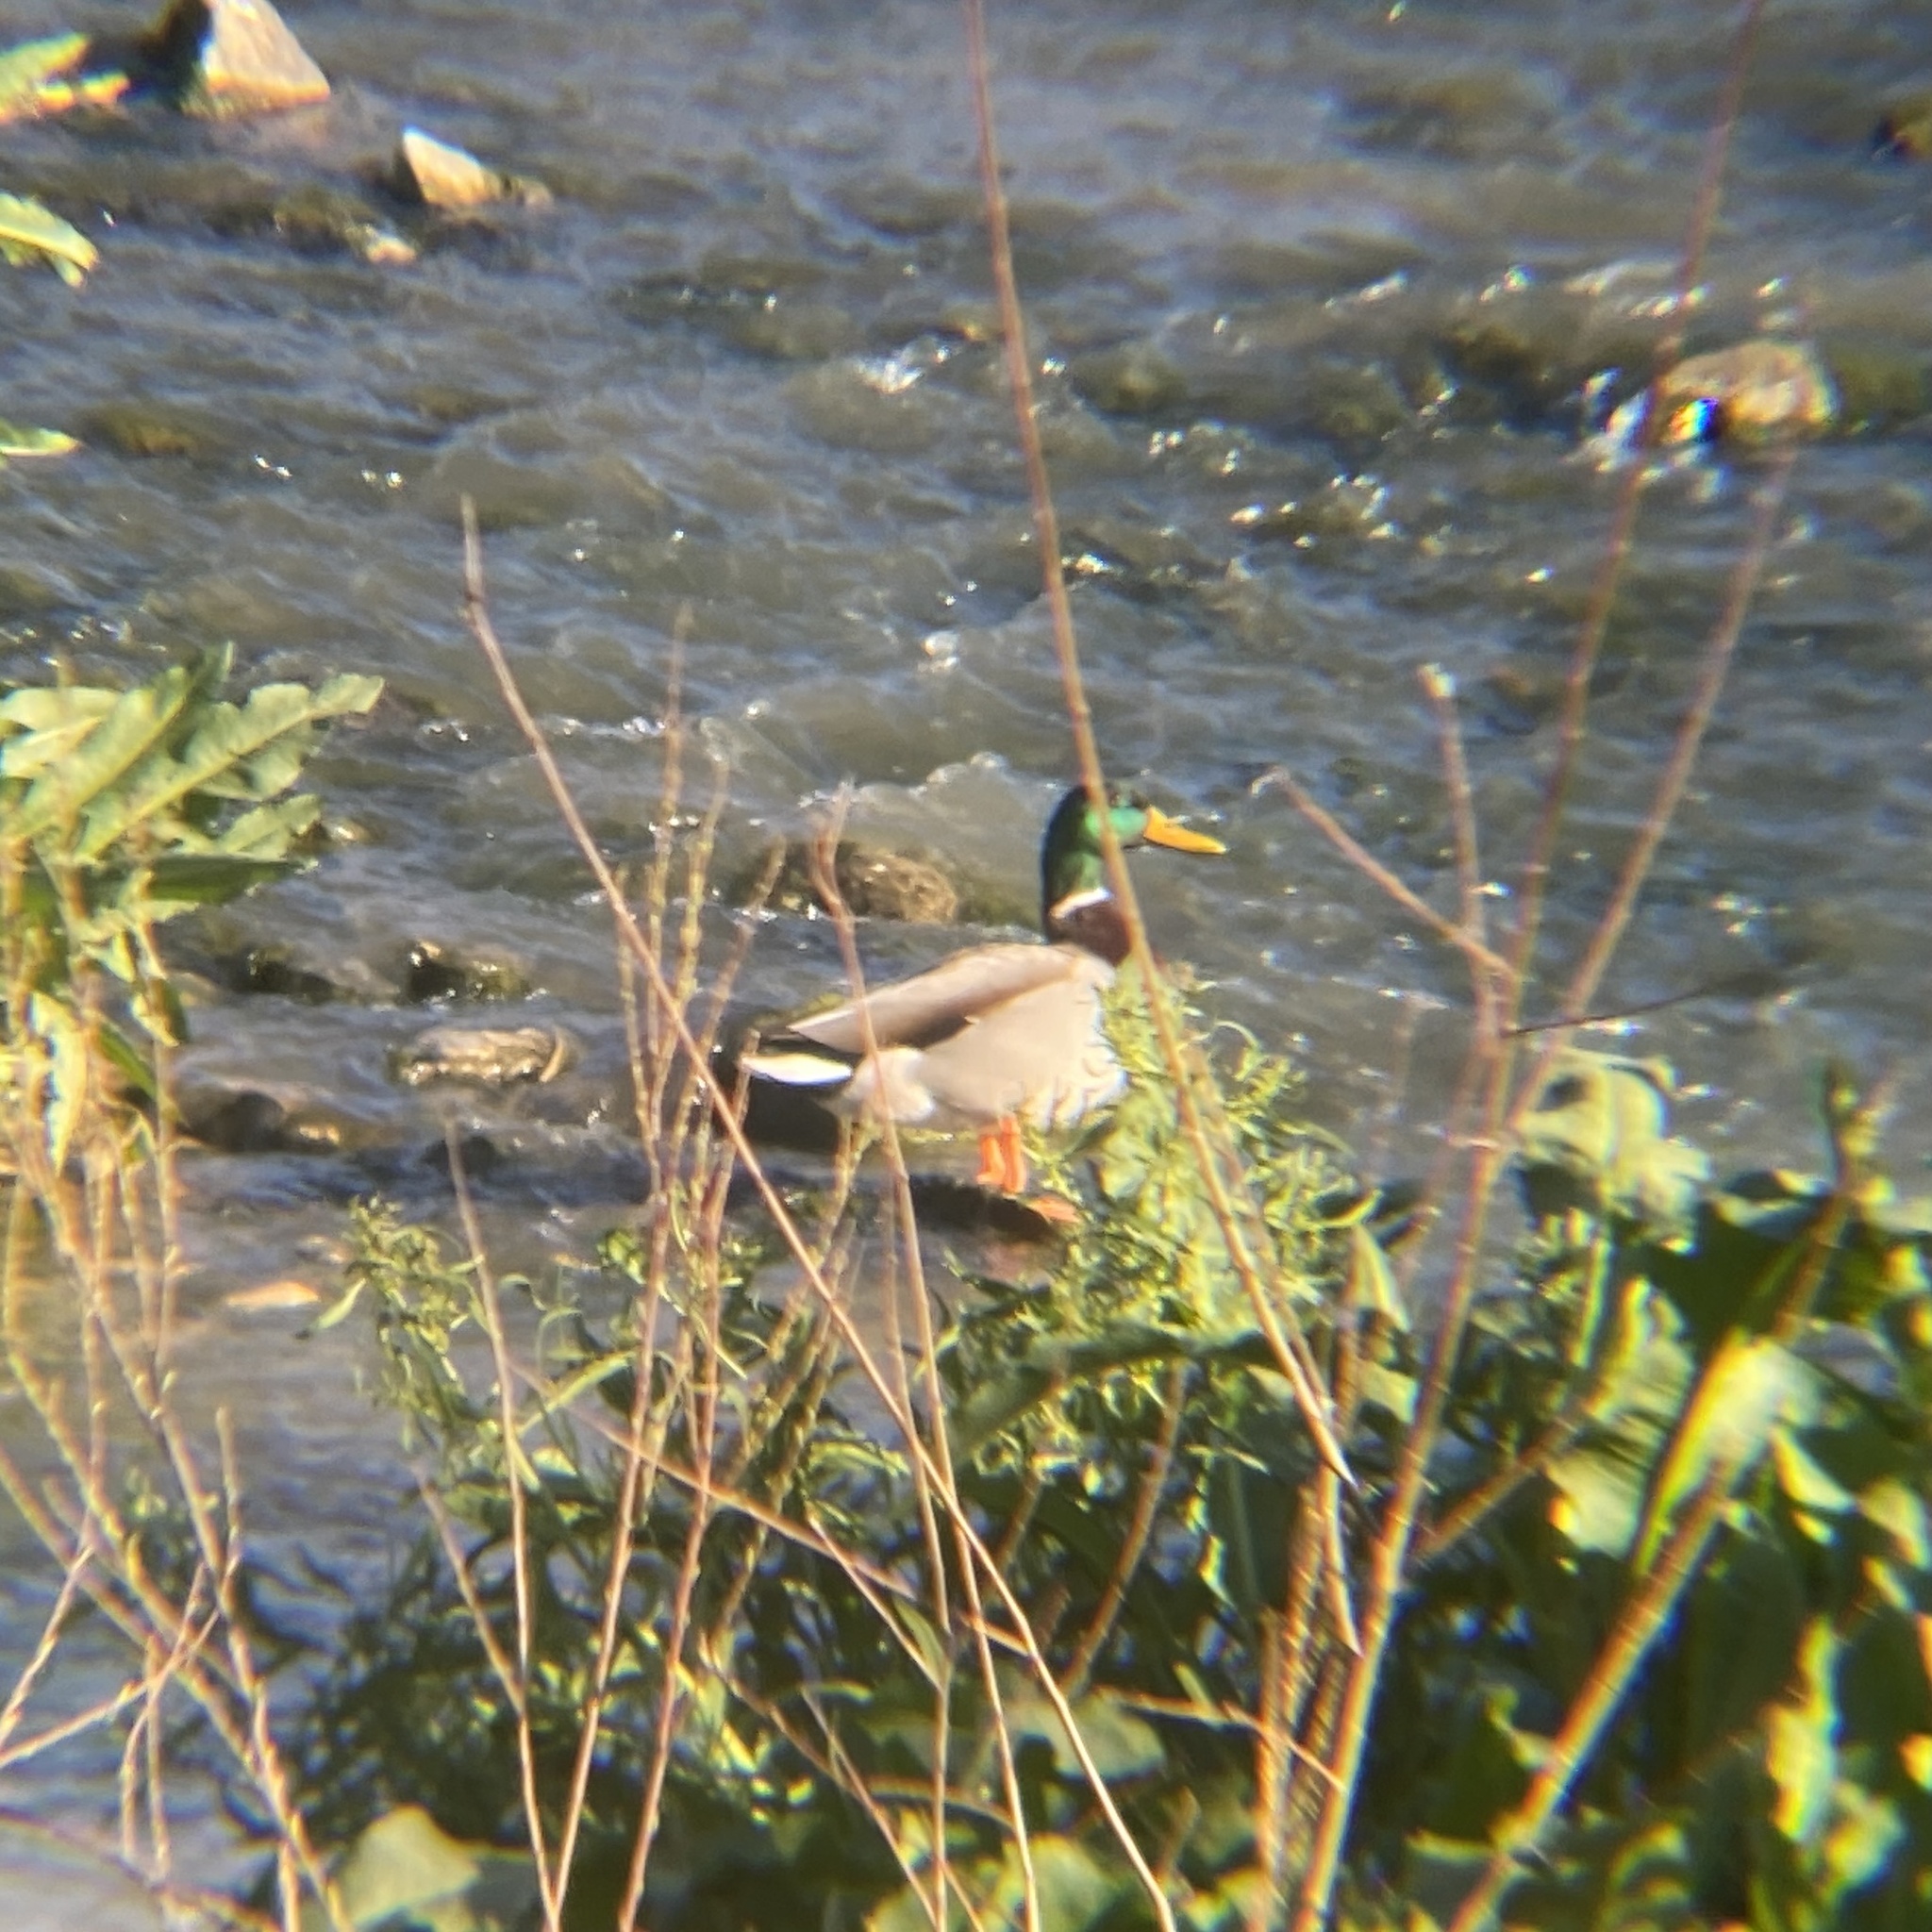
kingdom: Animalia
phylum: Chordata
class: Aves
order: Anseriformes
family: Anatidae
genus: Anas
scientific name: Anas platyrhynchos
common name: Mallard
